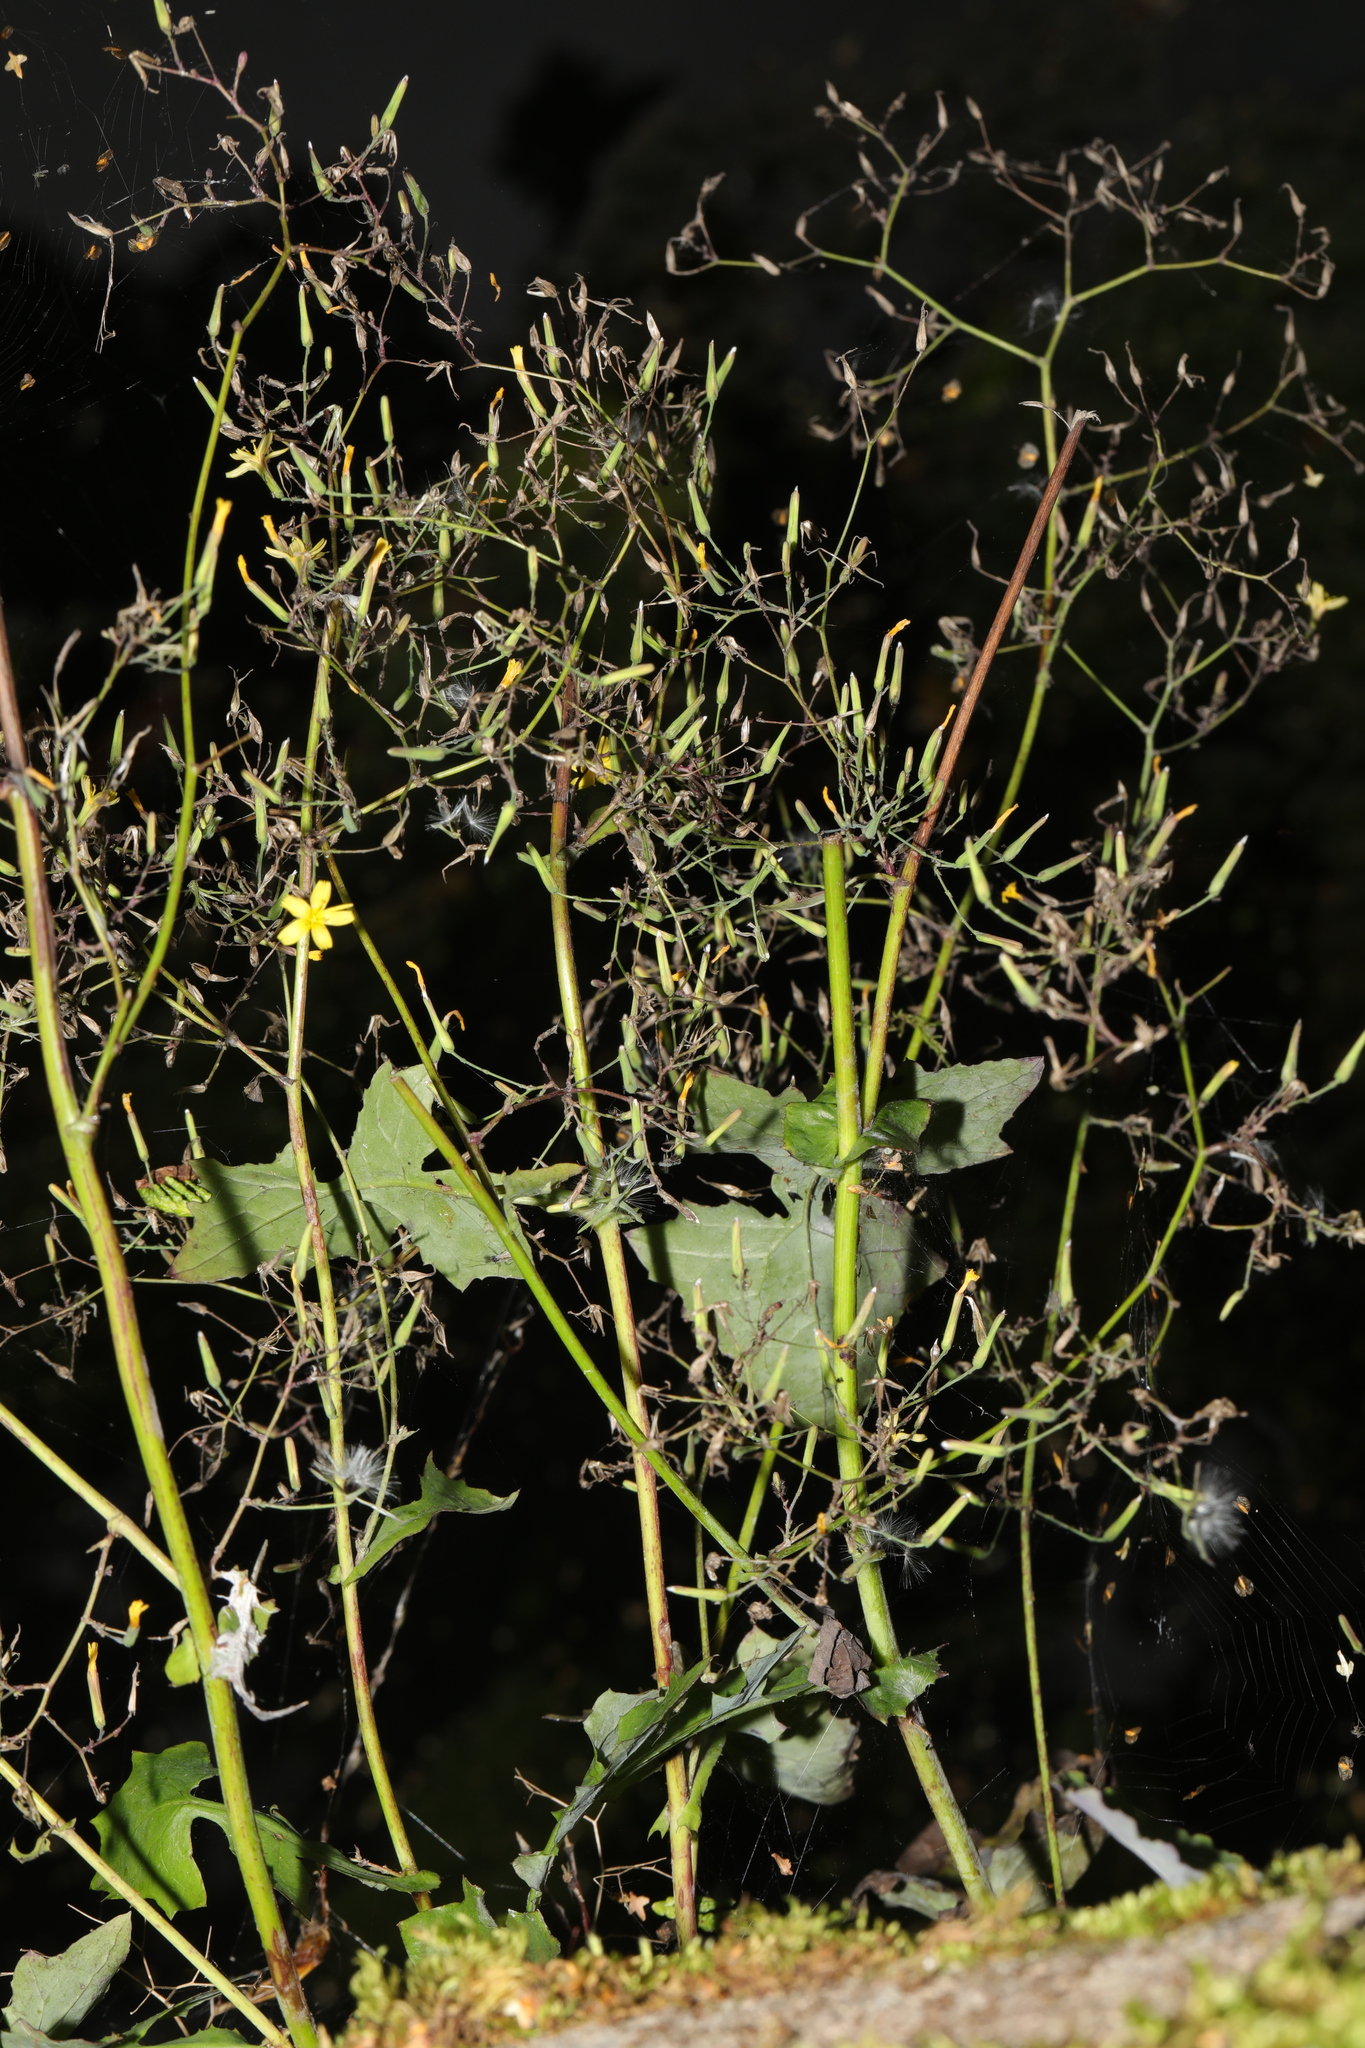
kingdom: Plantae
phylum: Tracheophyta
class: Magnoliopsida
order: Asterales
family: Asteraceae
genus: Mycelis
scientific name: Mycelis muralis
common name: Wall lettuce
